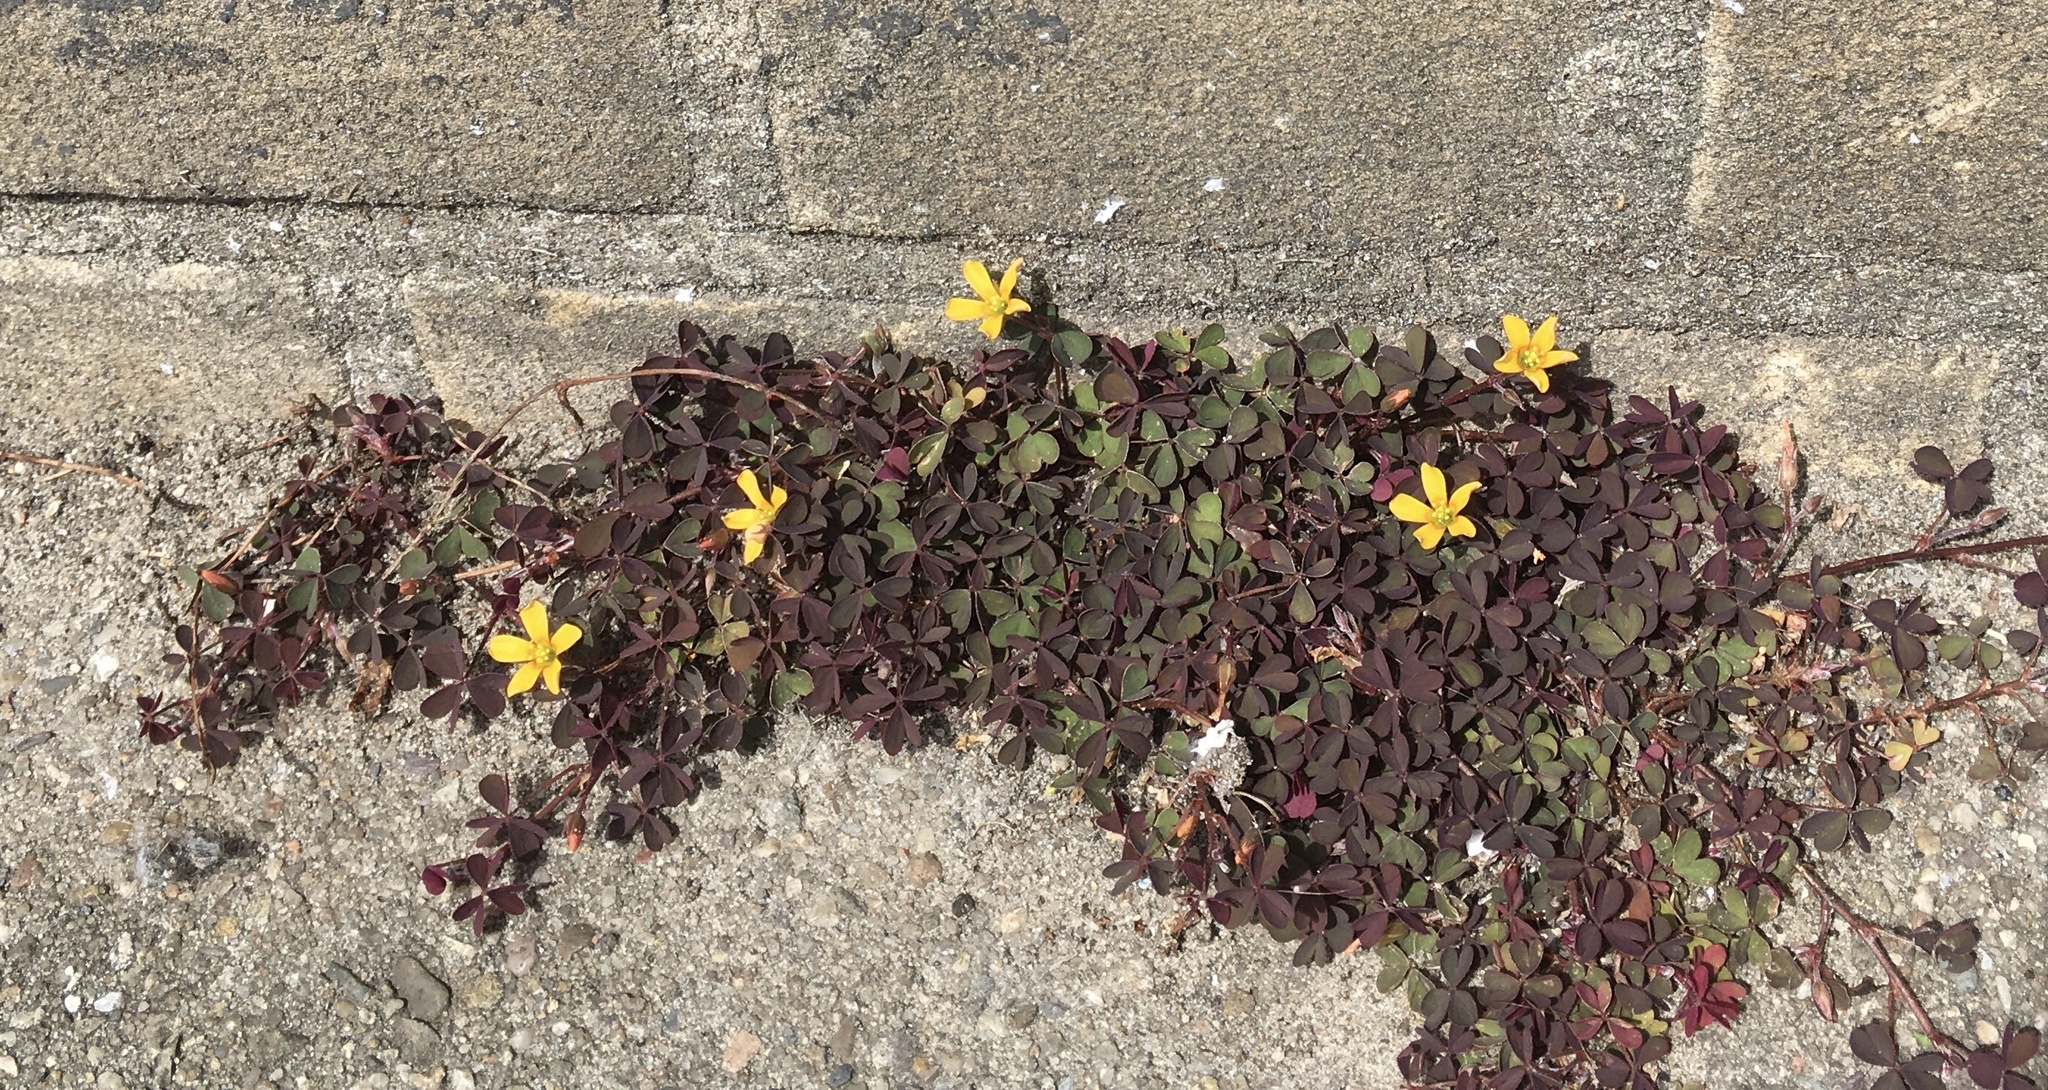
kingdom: Plantae
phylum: Tracheophyta
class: Magnoliopsida
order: Oxalidales
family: Oxalidaceae
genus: Oxalis
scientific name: Oxalis corniculata
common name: Procumbent yellow-sorrel
